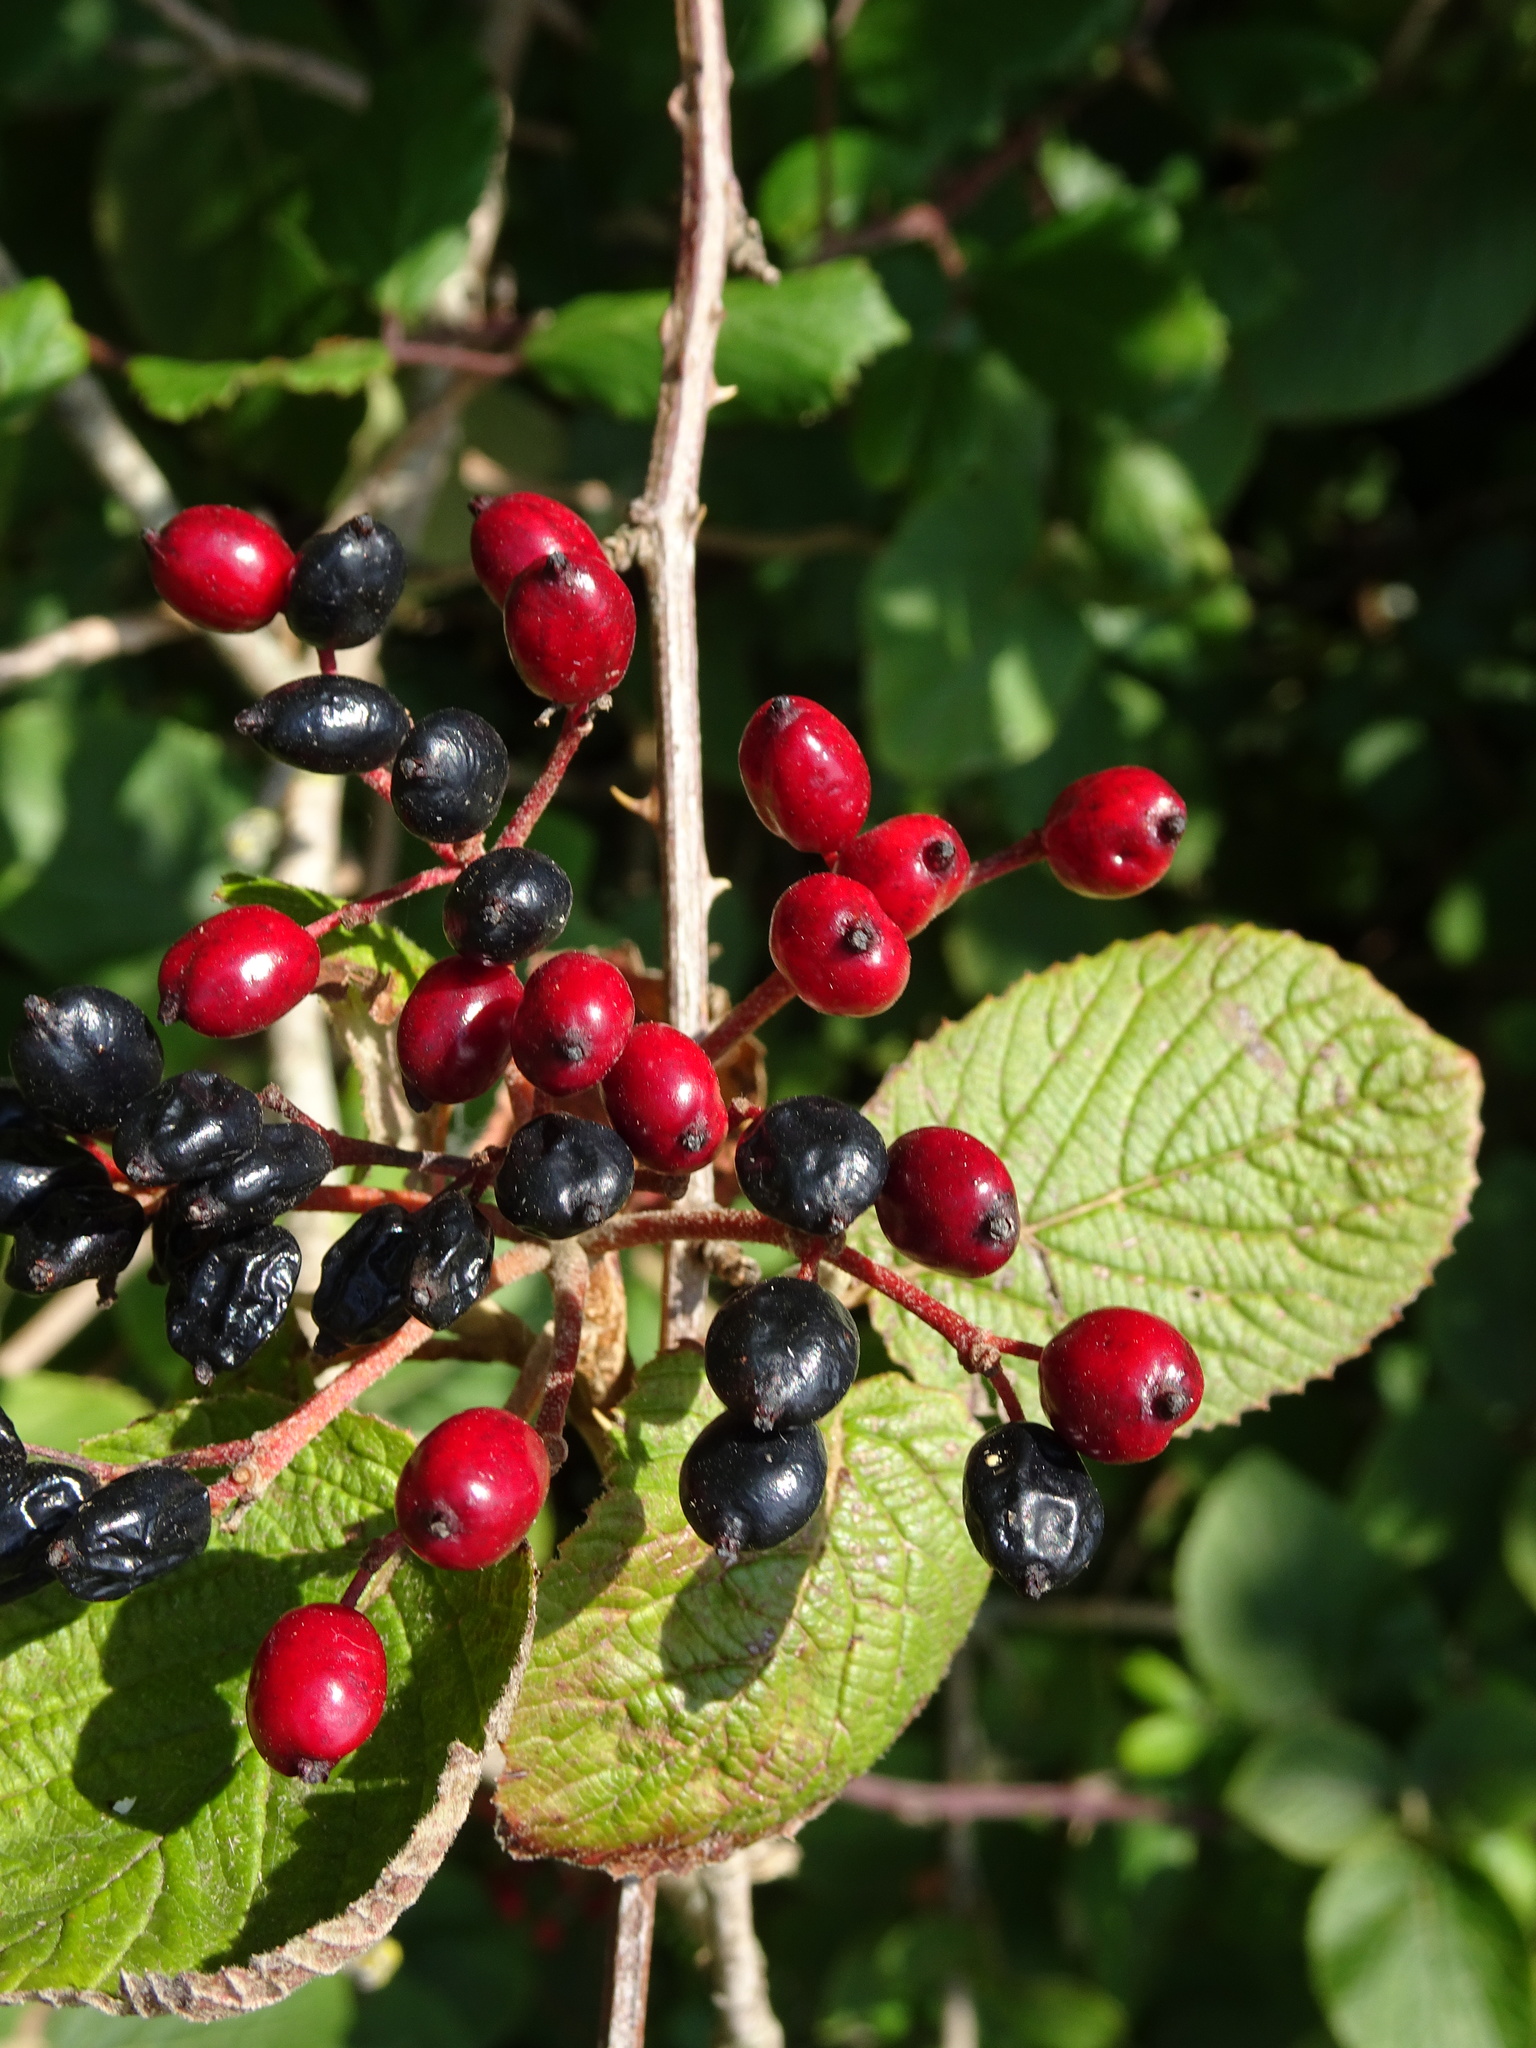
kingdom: Plantae
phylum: Tracheophyta
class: Magnoliopsida
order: Dipsacales
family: Viburnaceae
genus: Viburnum
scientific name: Viburnum lantana
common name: Wayfaring tree
